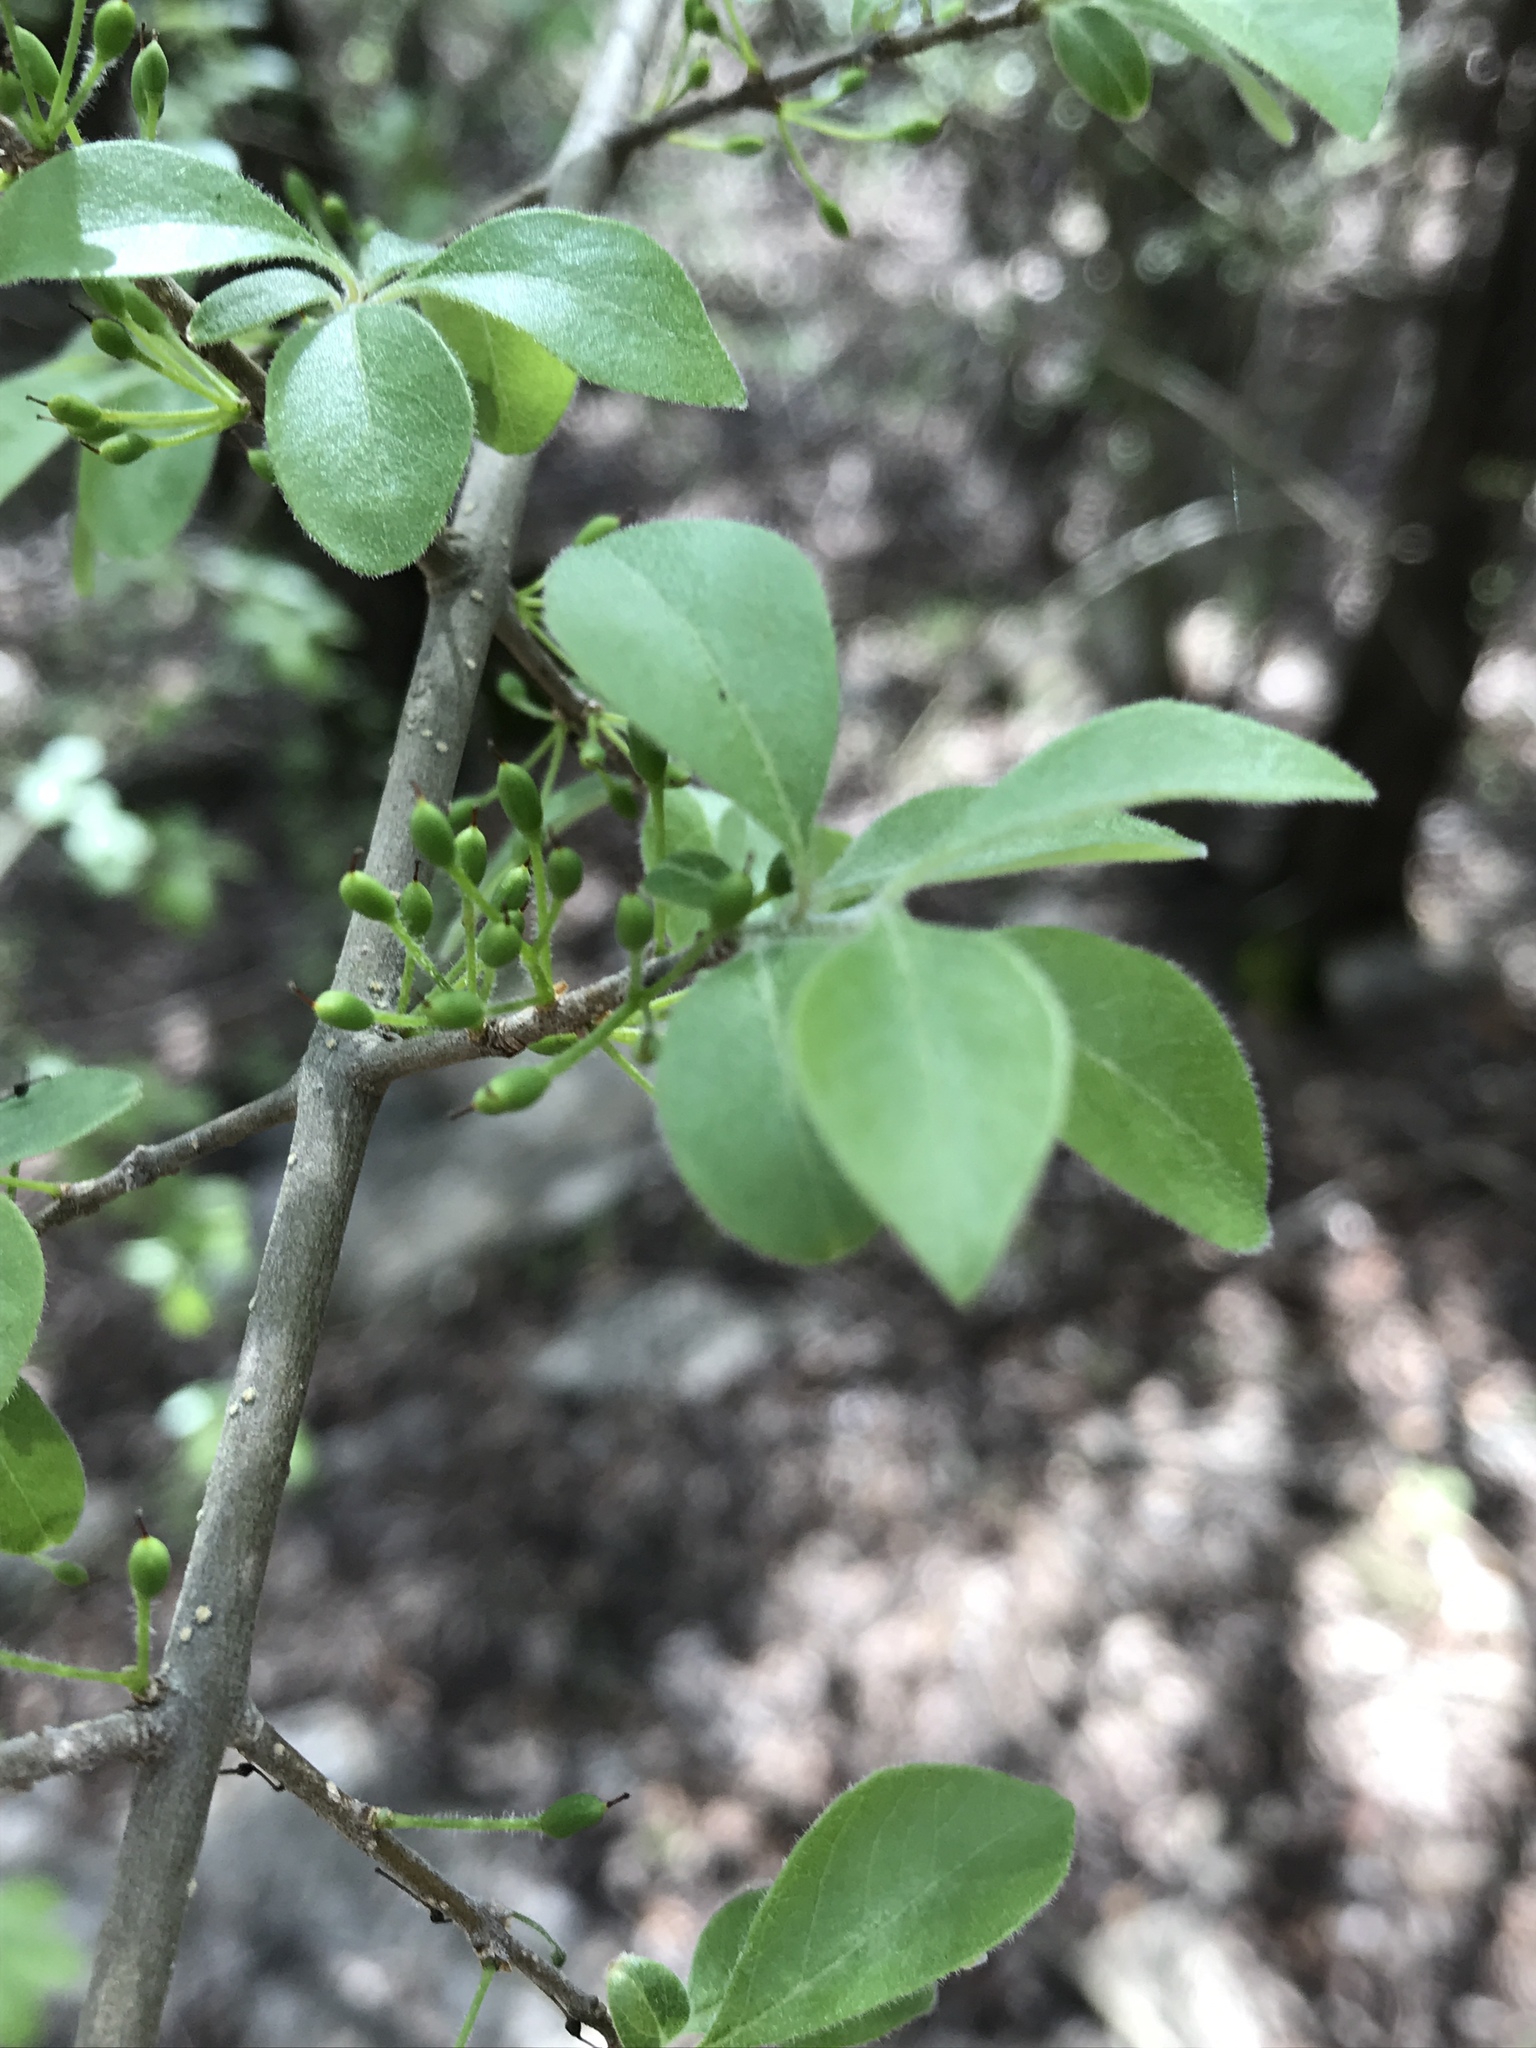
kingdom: Plantae
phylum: Tracheophyta
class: Magnoliopsida
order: Lamiales
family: Oleaceae
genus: Forestiera
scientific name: Forestiera pubescens
